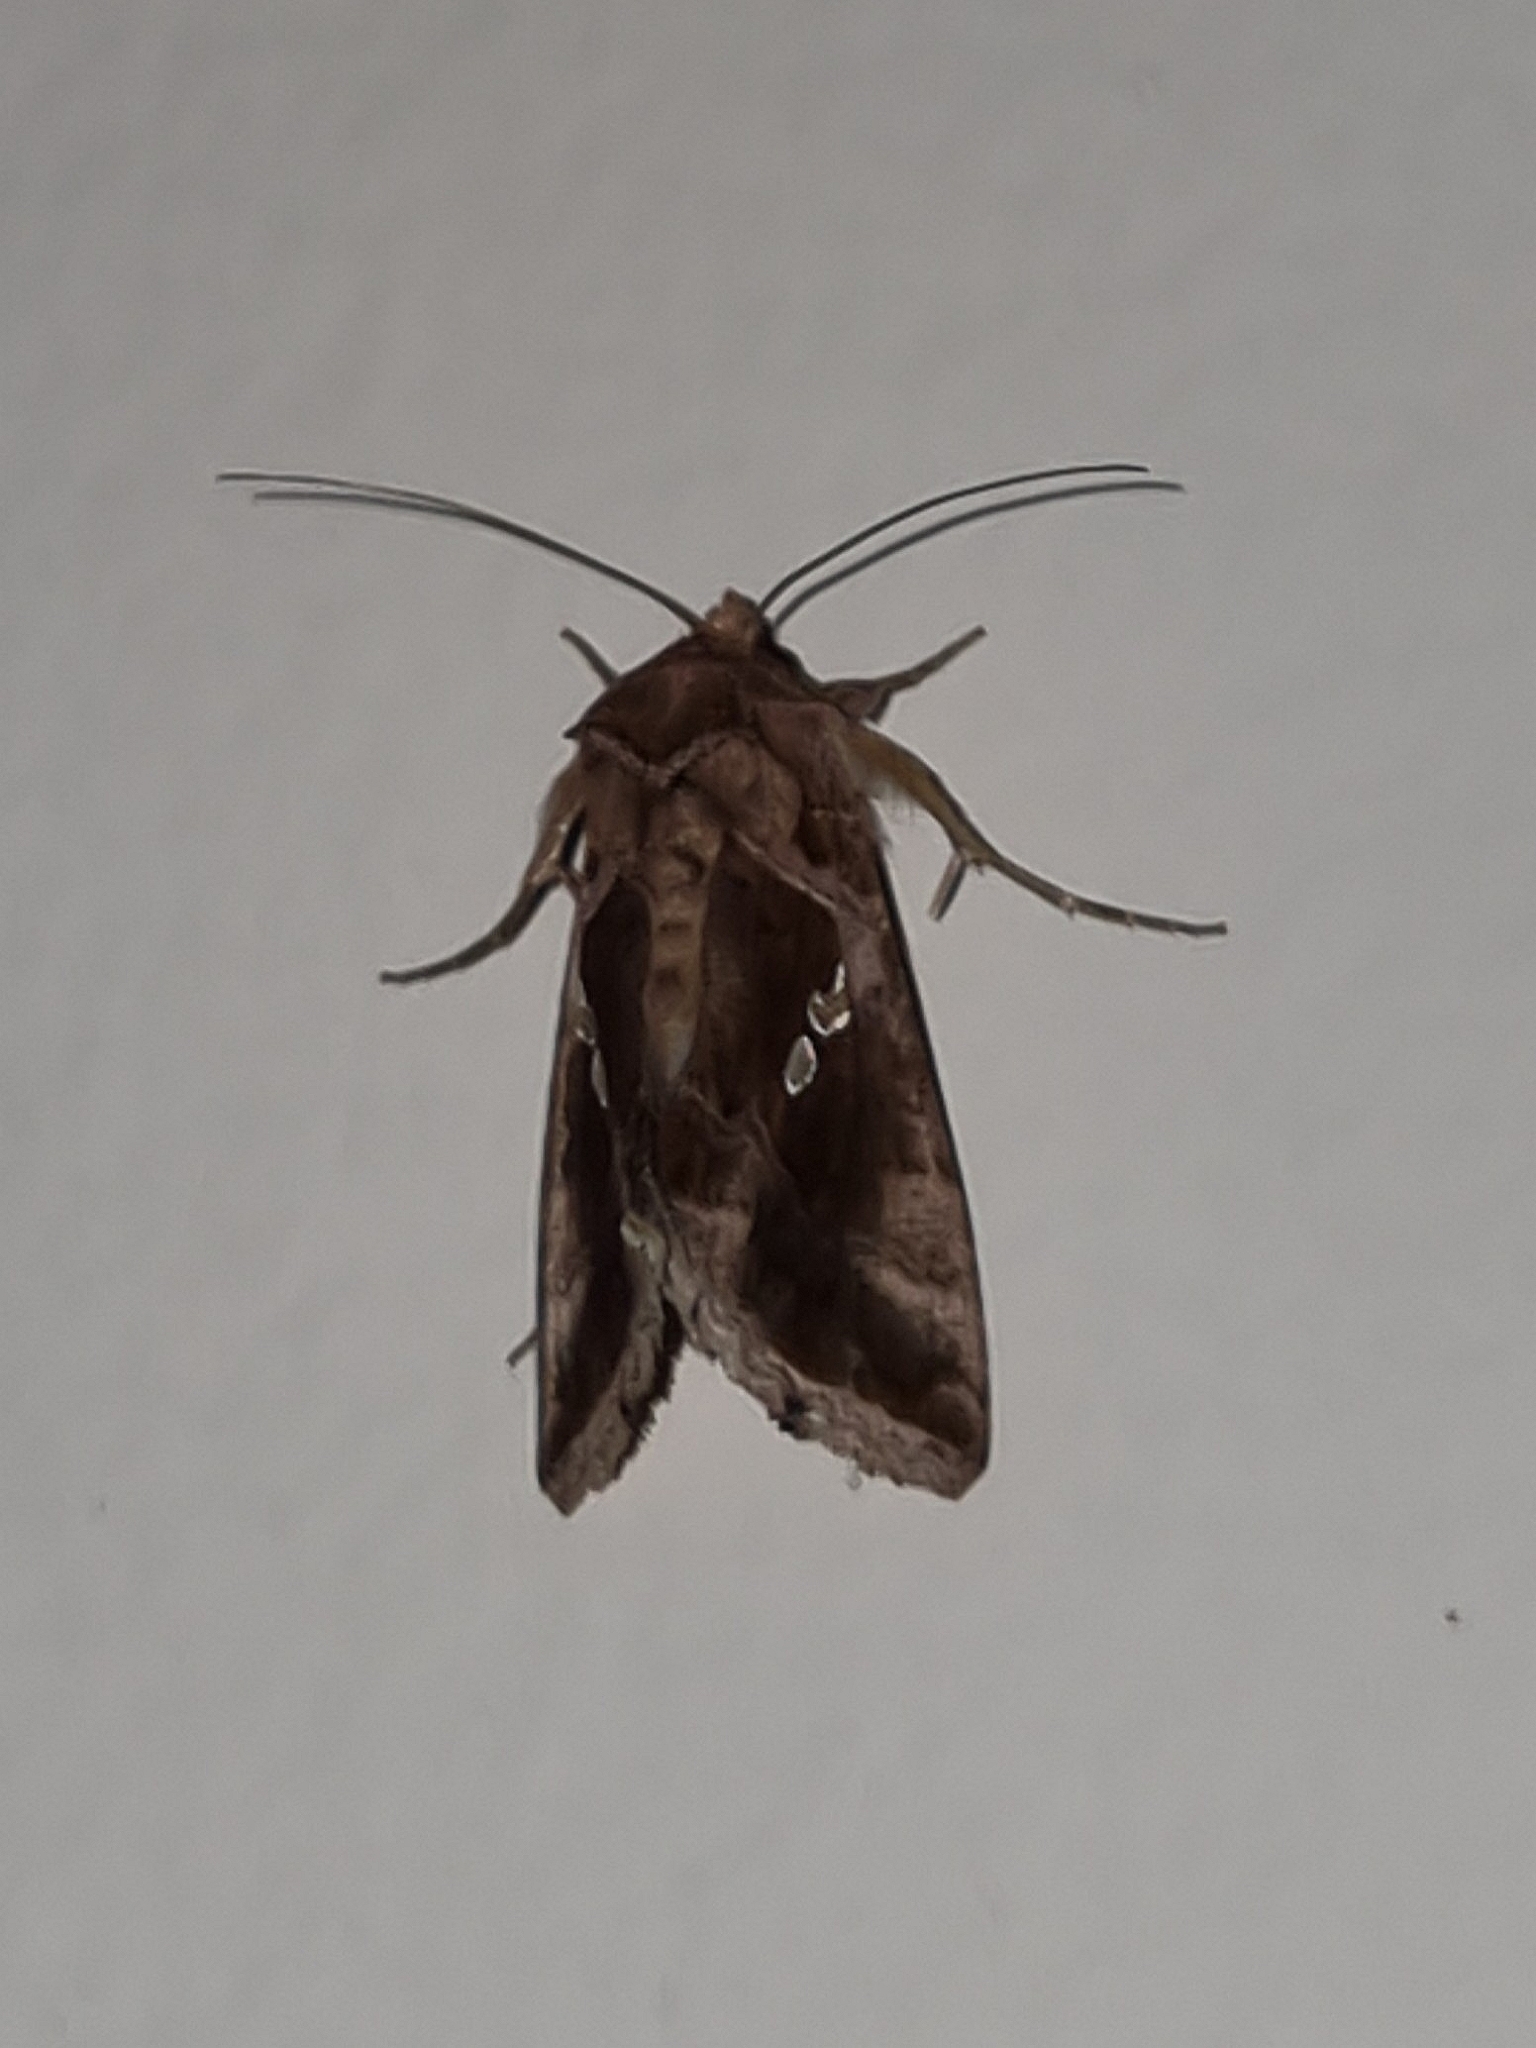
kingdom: Animalia
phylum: Arthropoda
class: Insecta
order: Lepidoptera
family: Noctuidae
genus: Chrysodeixis
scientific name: Chrysodeixis chalcites
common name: Golden twin-spot
